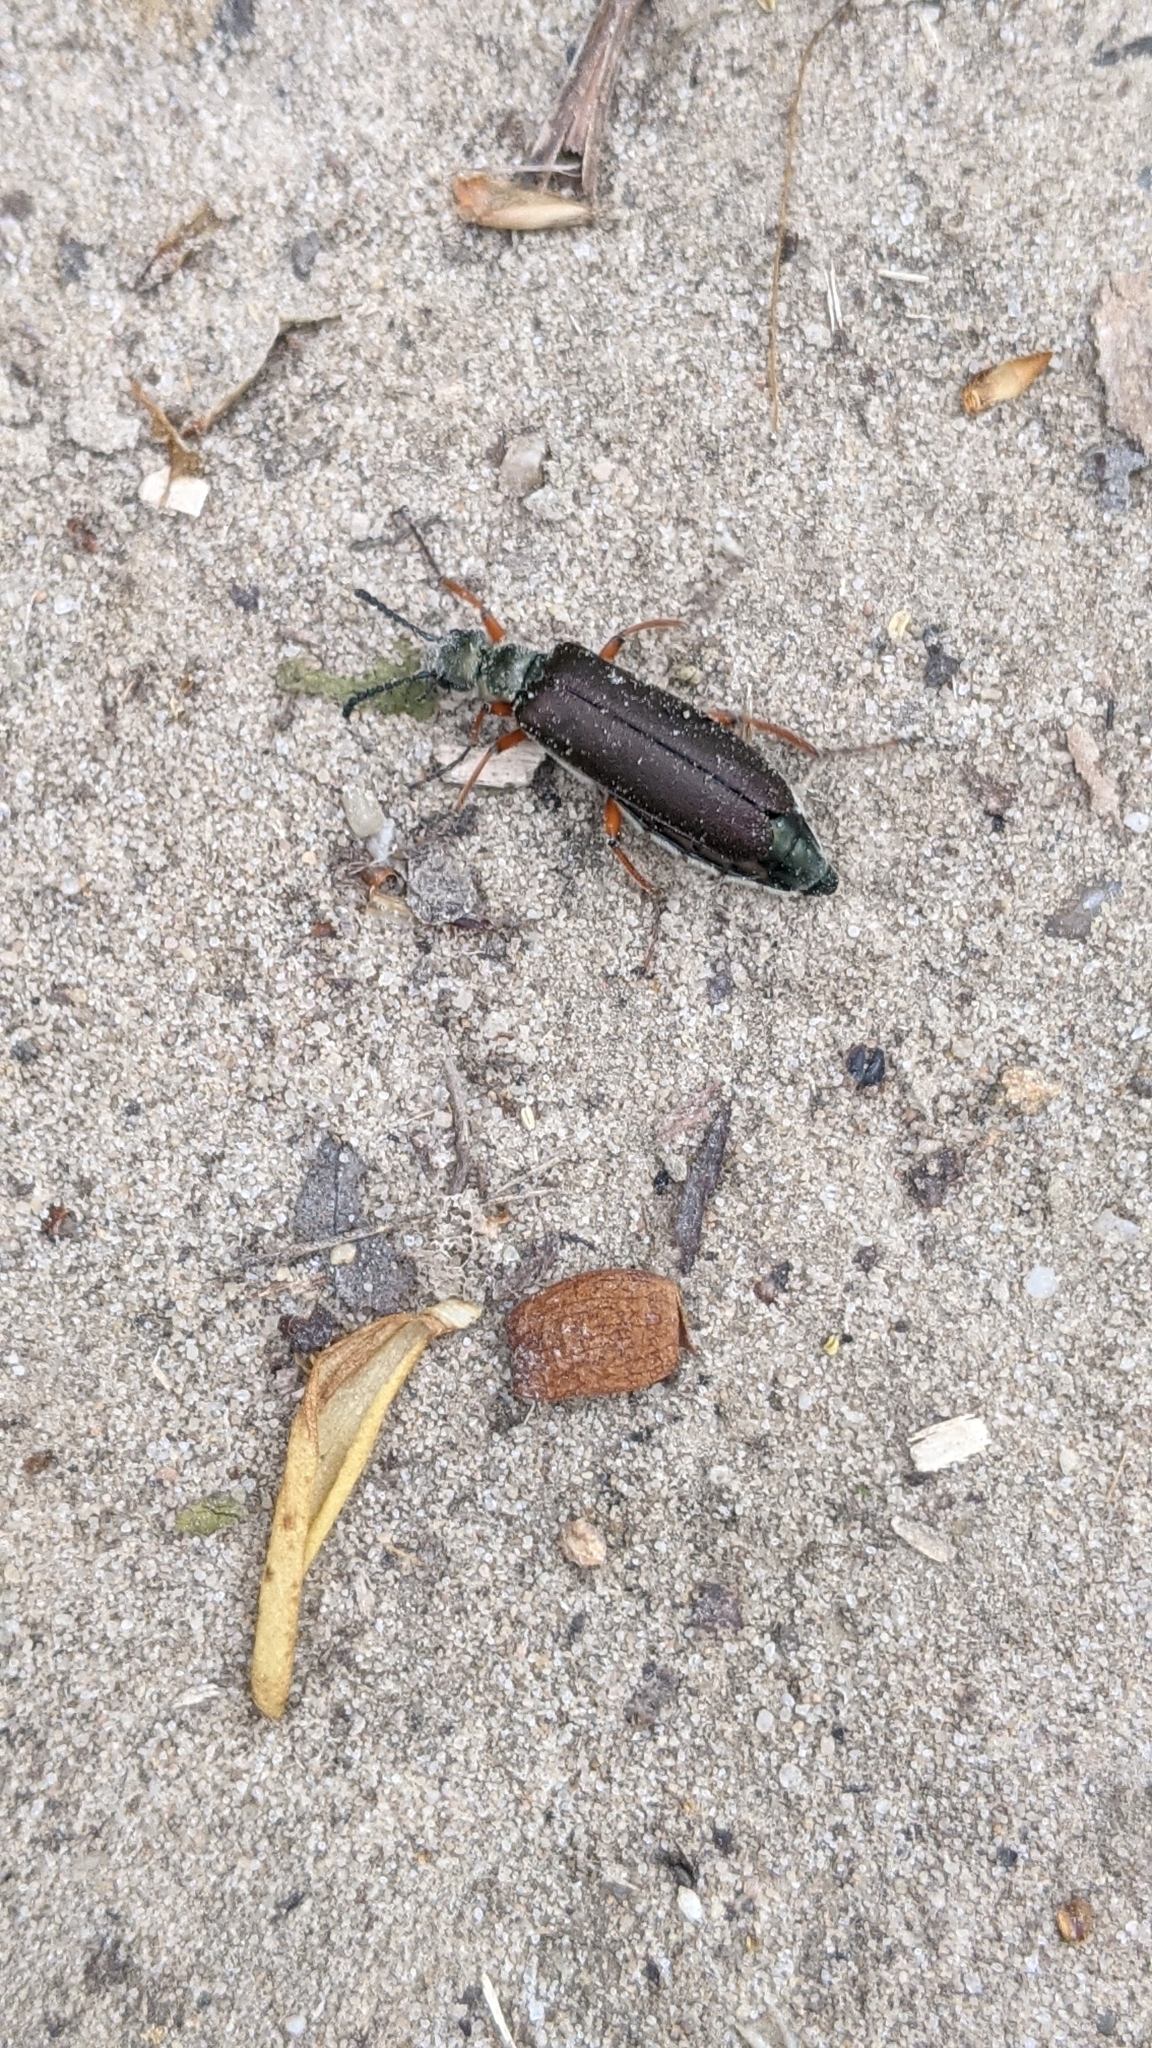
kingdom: Animalia
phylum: Arthropoda
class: Insecta
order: Coleoptera
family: Meloidae
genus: Lytta
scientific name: Lytta aenea
